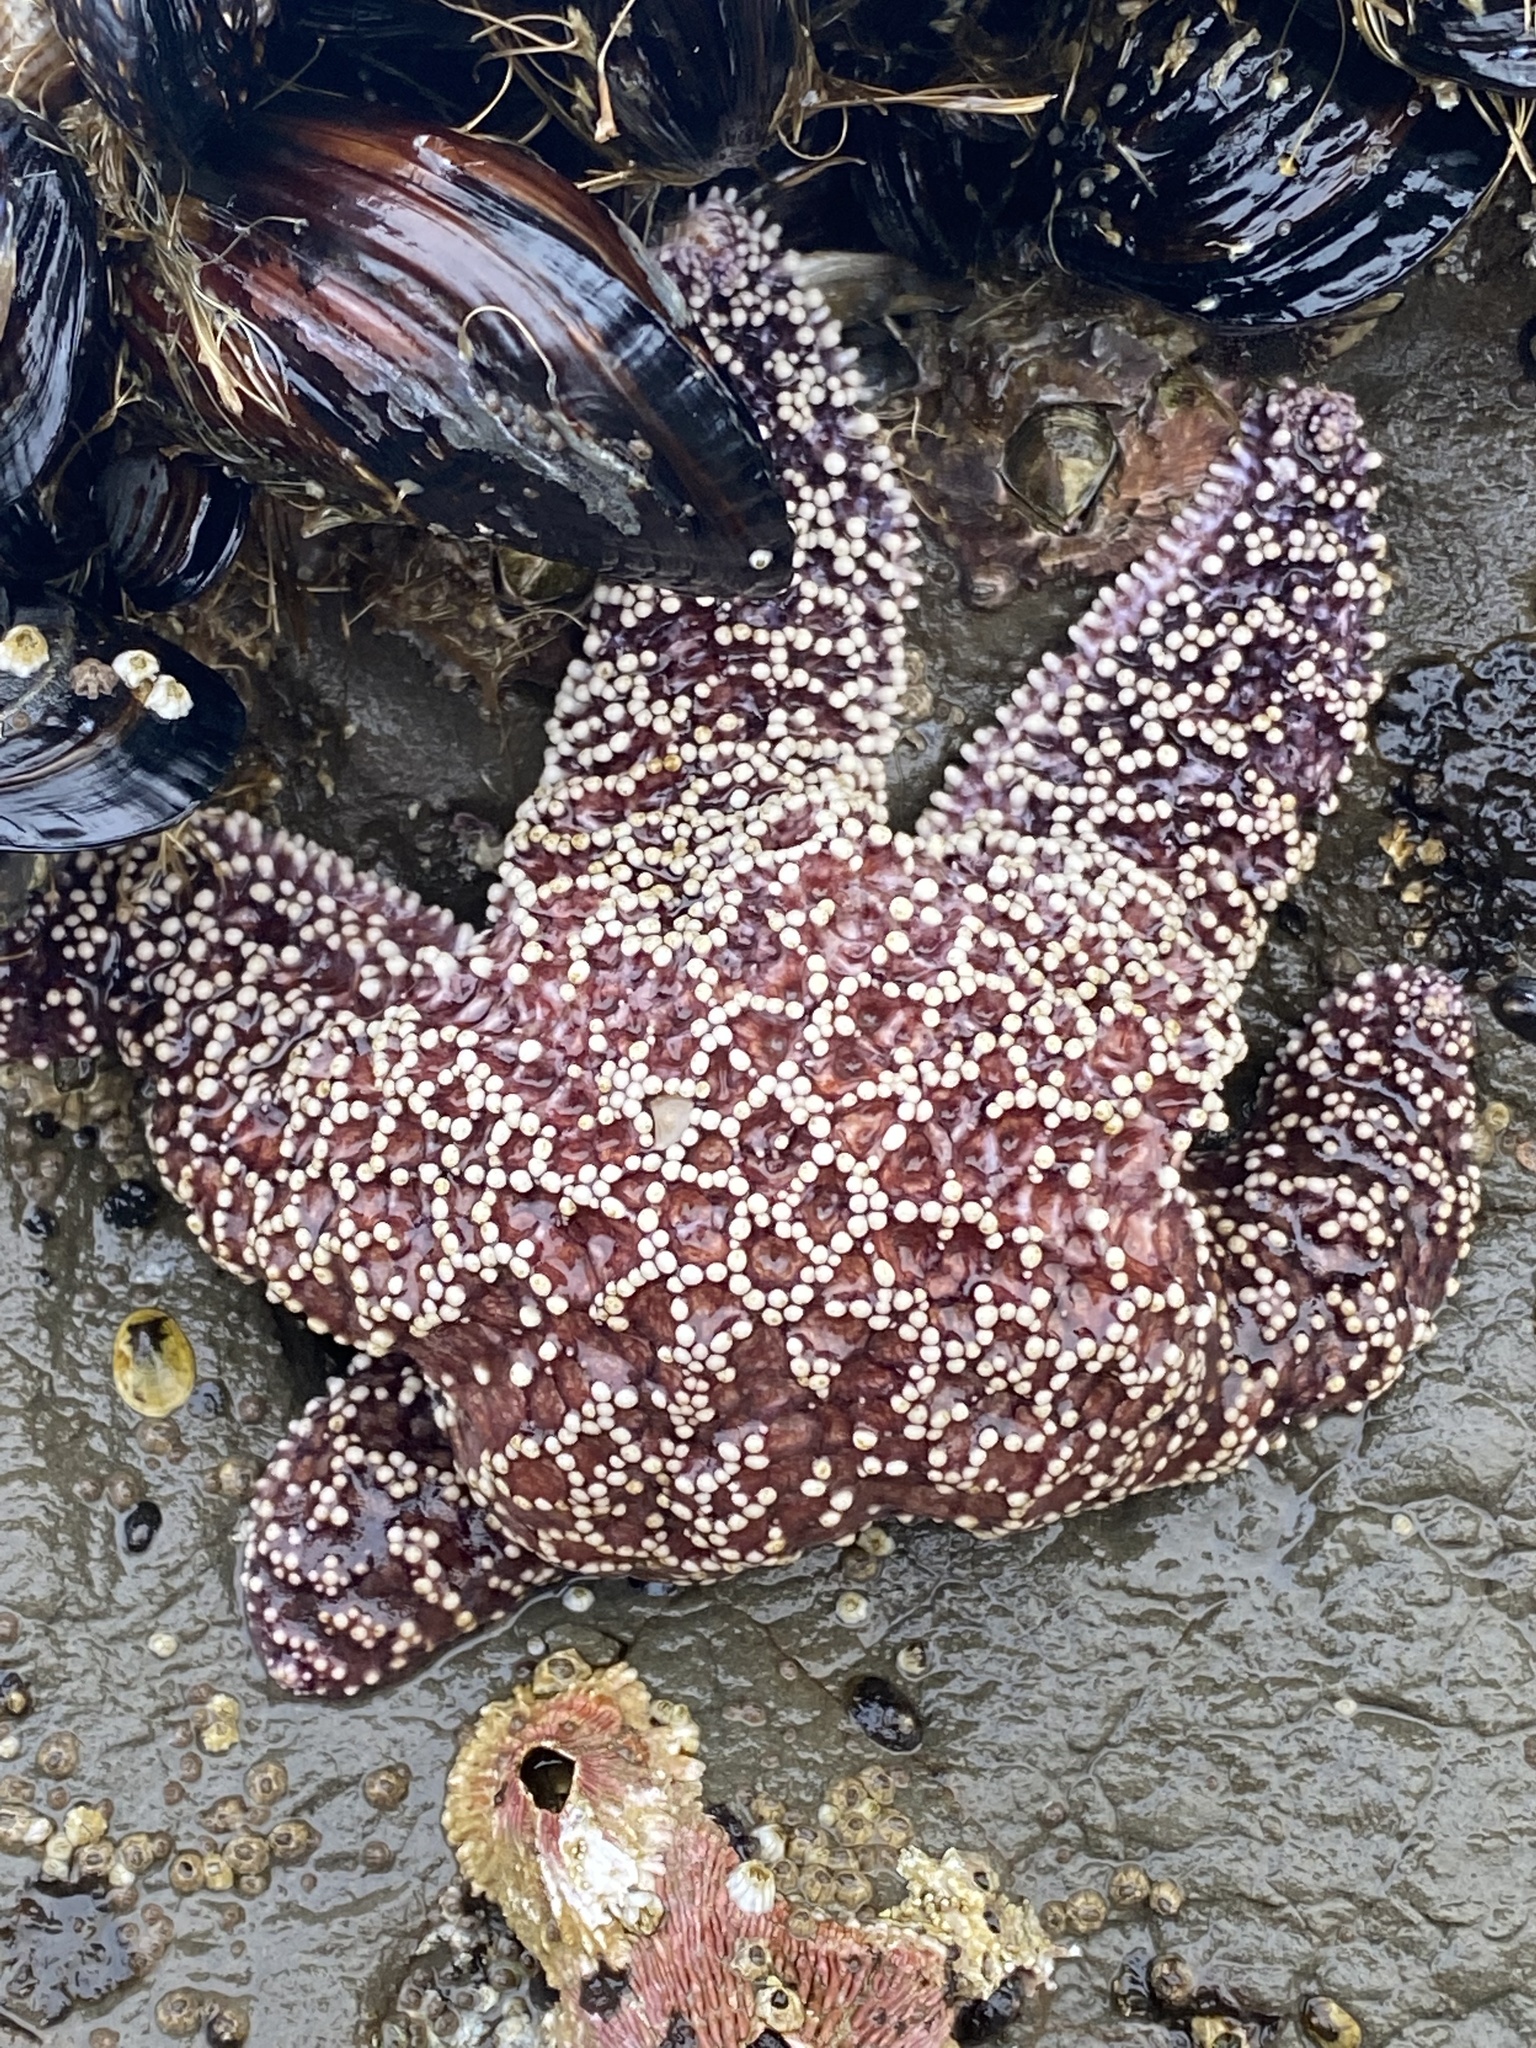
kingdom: Animalia
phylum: Echinodermata
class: Asteroidea
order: Forcipulatida
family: Asteriidae
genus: Pisaster
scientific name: Pisaster ochraceus
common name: Ochre stars
